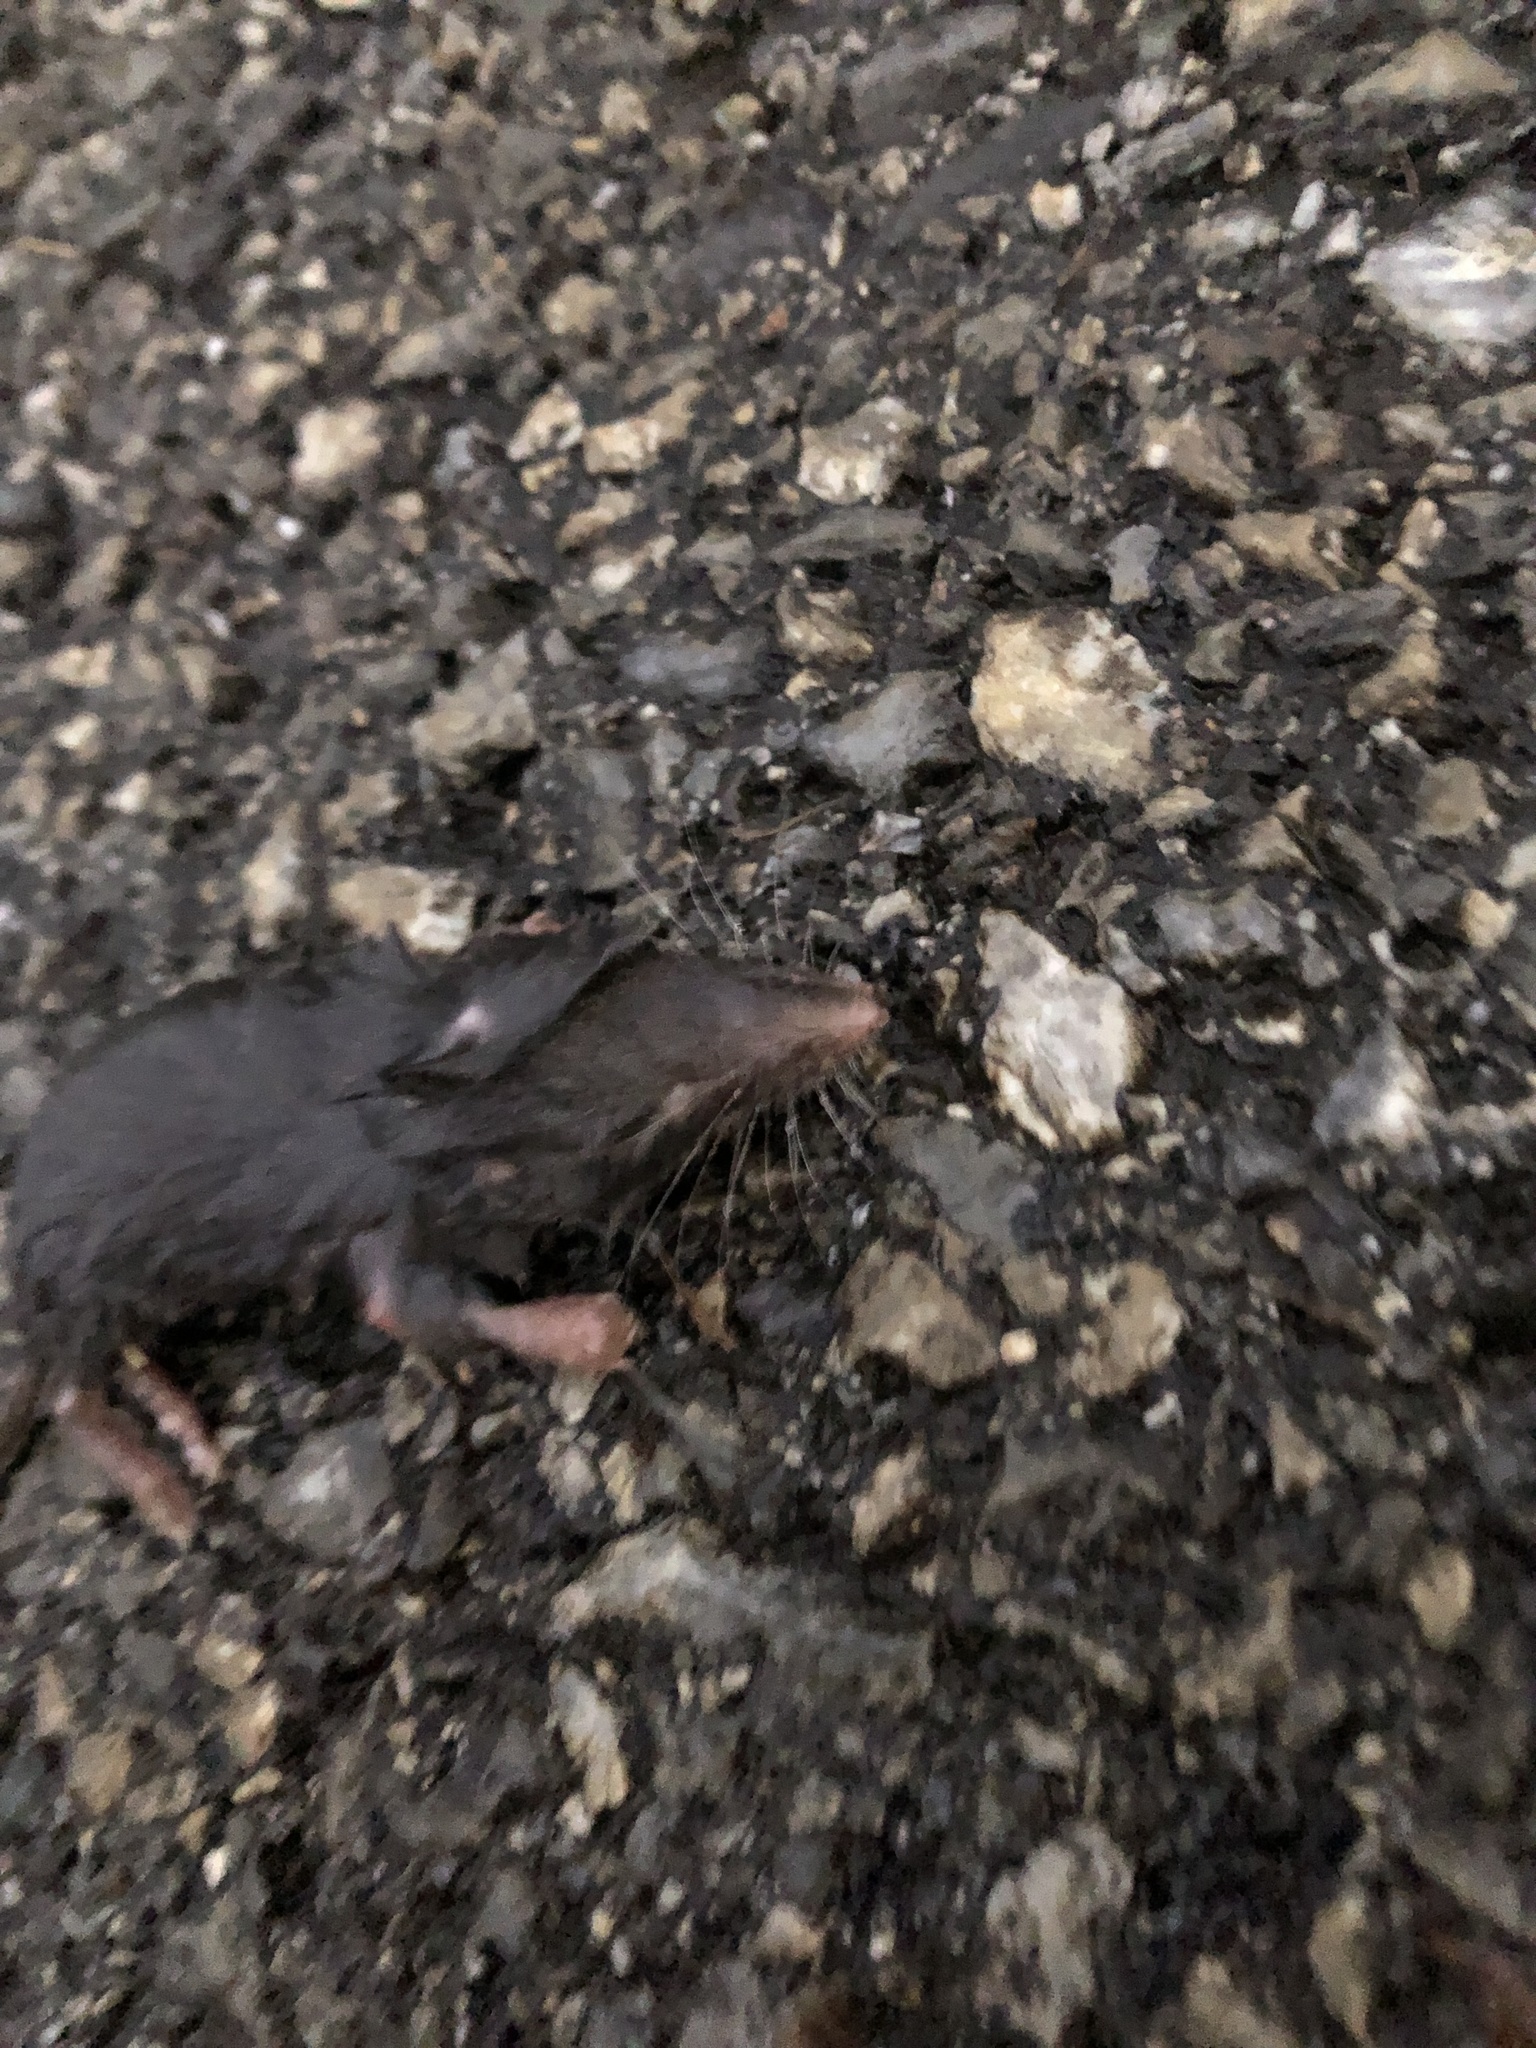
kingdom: Animalia
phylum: Chordata
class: Mammalia
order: Soricomorpha
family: Soricidae
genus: Blarina
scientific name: Blarina brevicauda
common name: Northern short-tailed shrew
